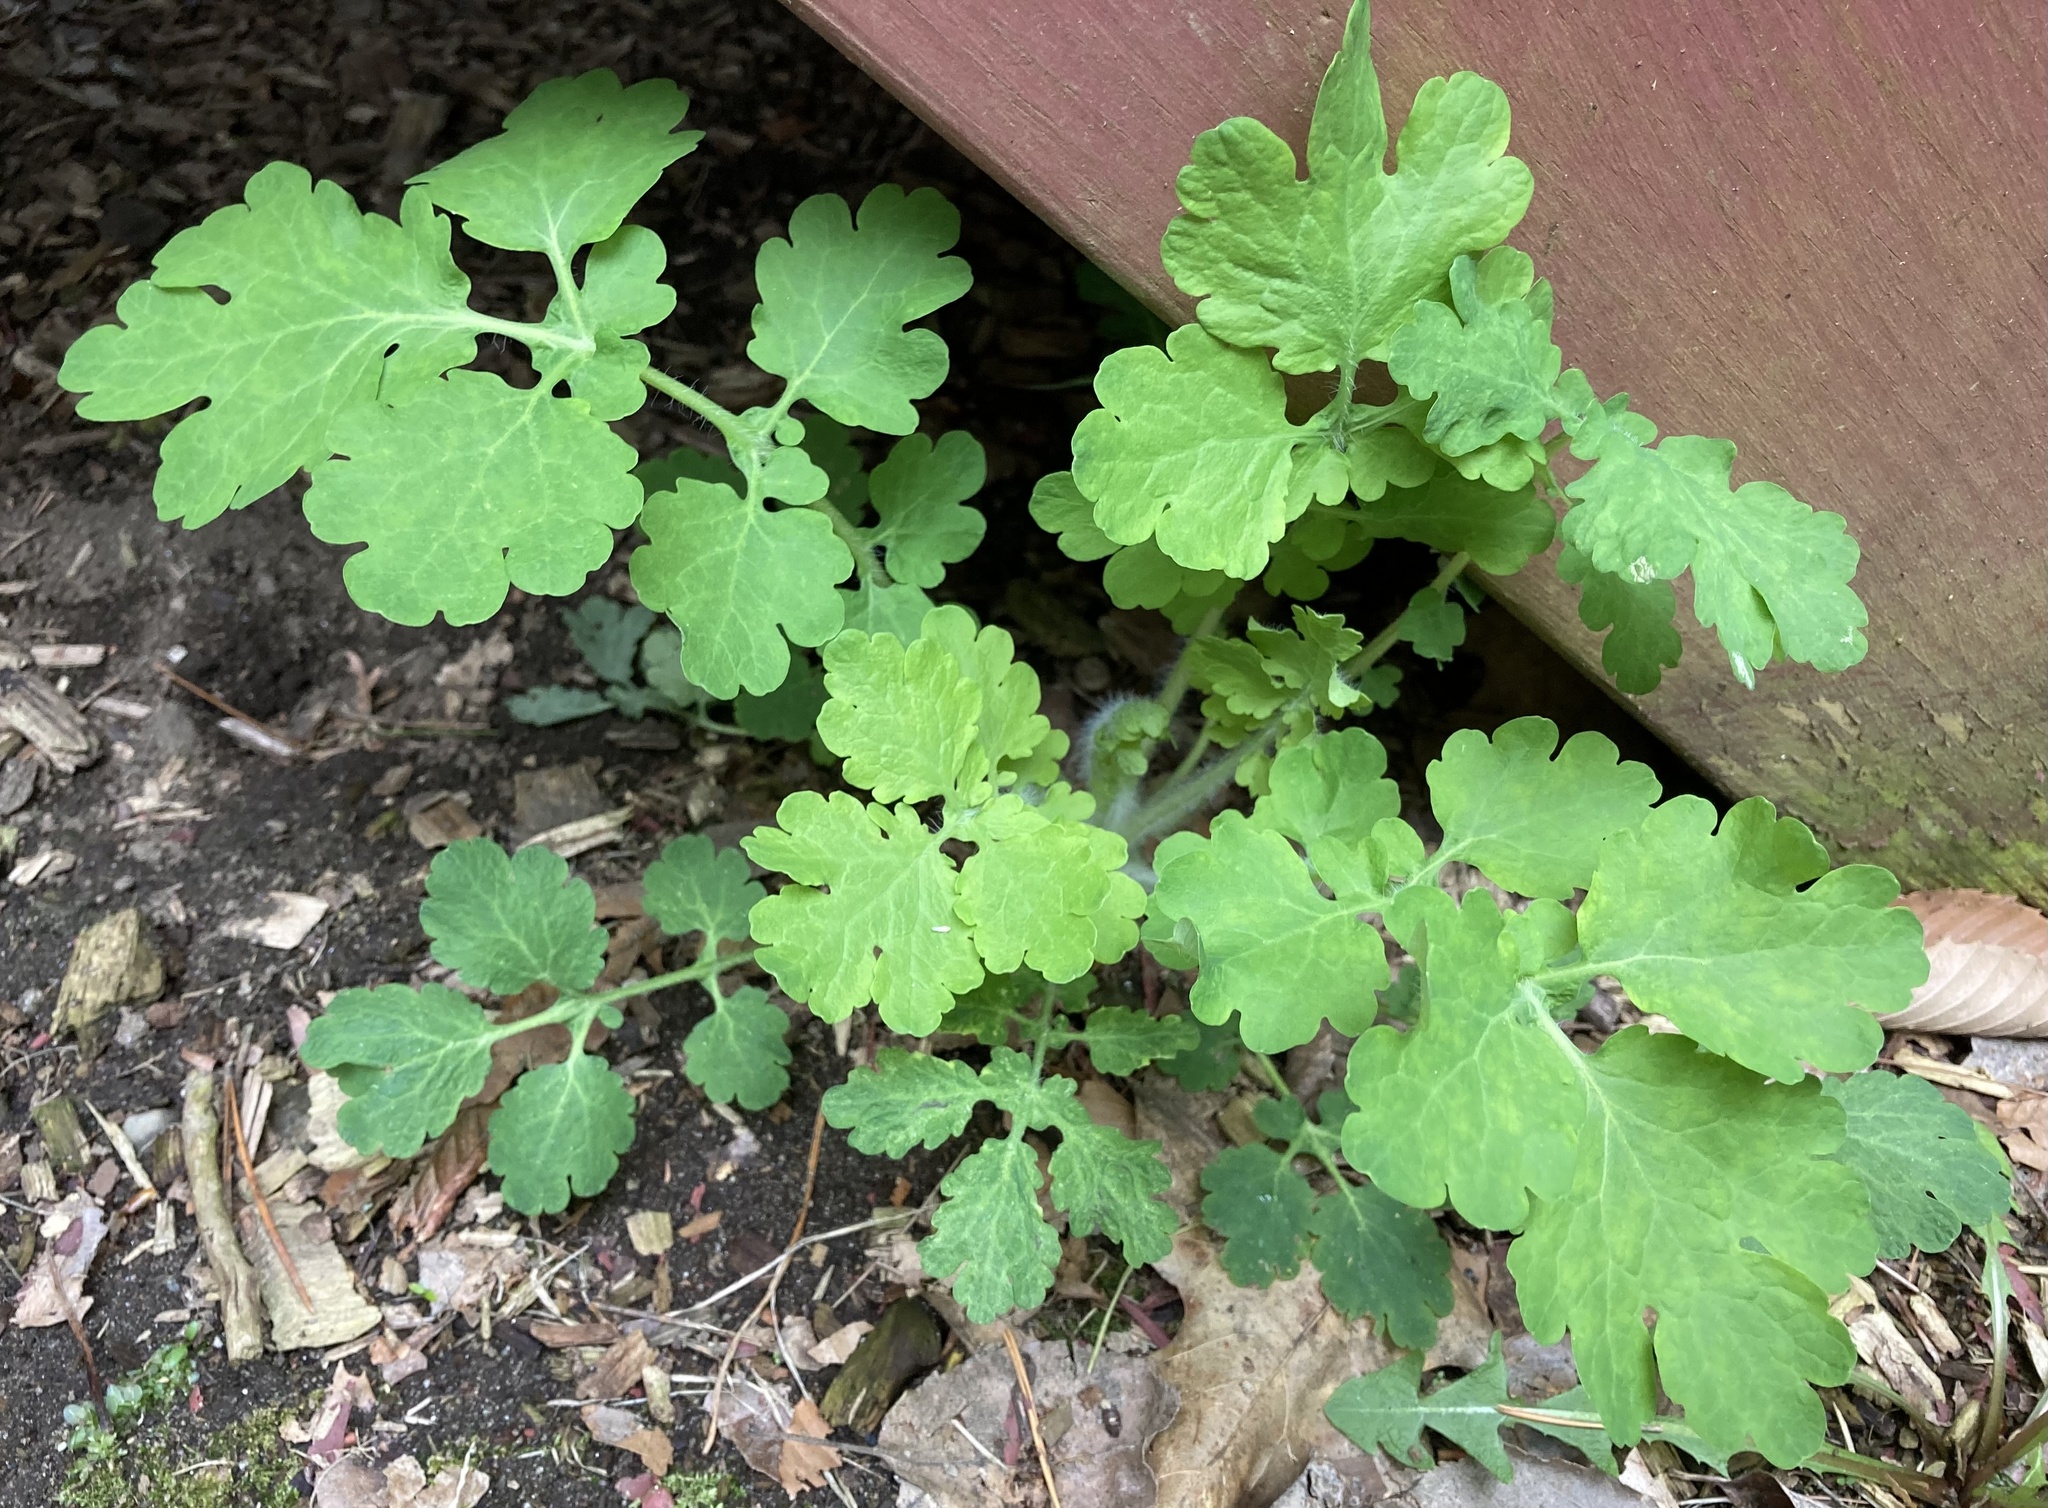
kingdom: Plantae
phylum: Tracheophyta
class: Magnoliopsida
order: Ranunculales
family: Papaveraceae
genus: Chelidonium
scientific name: Chelidonium majus
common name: Greater celandine
